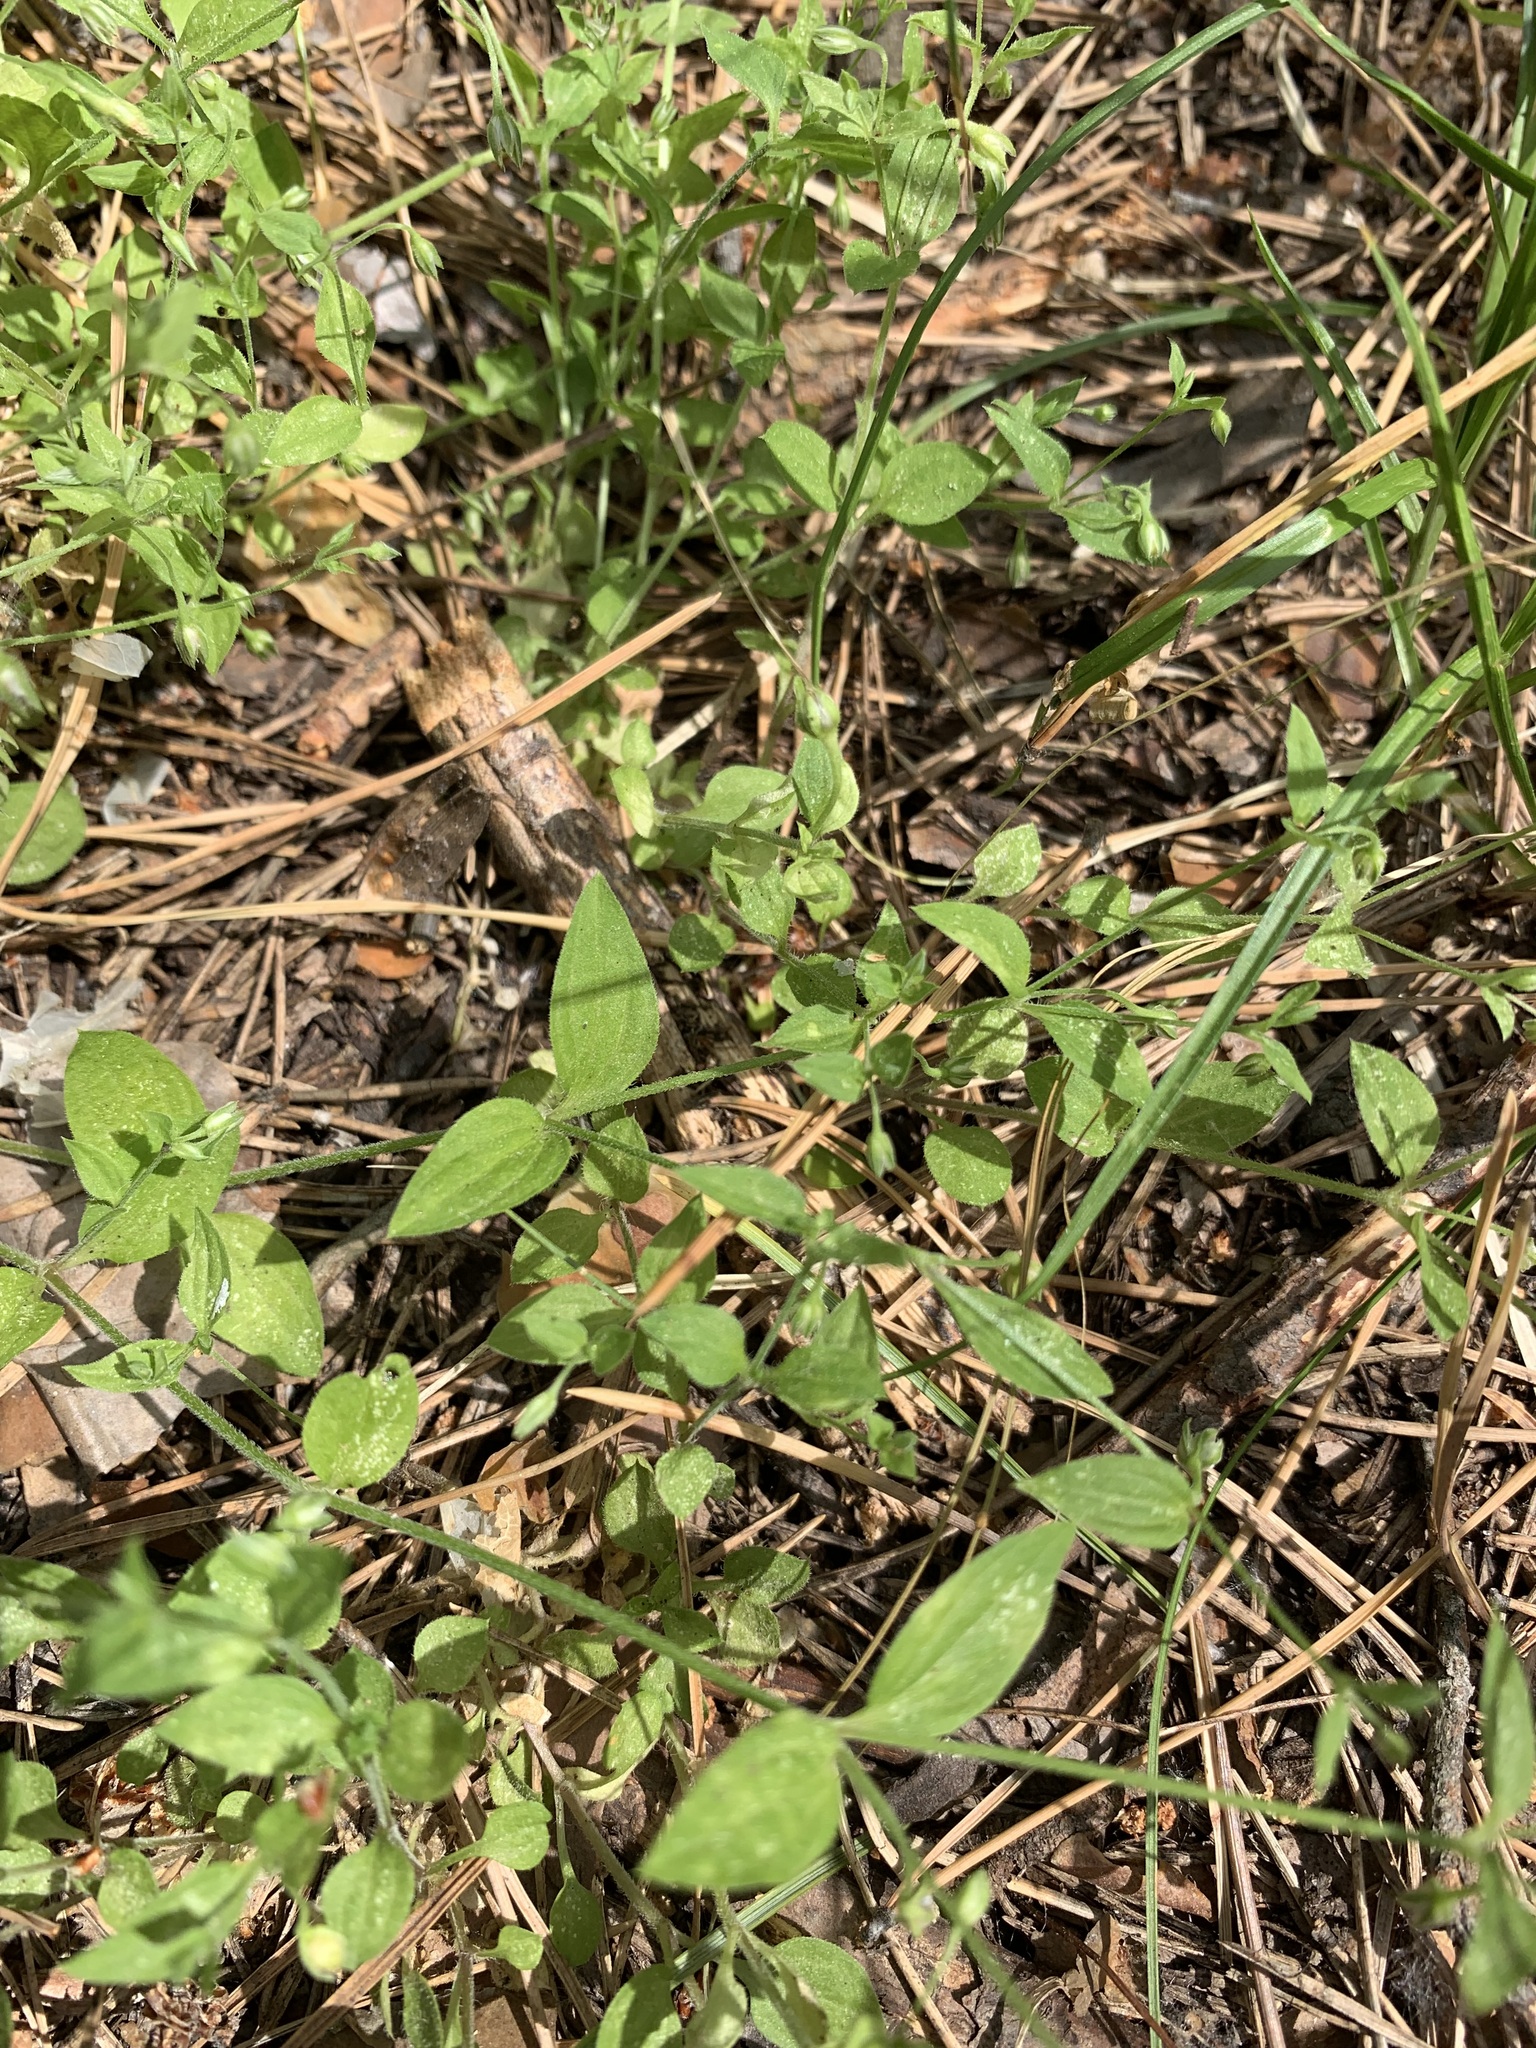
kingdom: Plantae
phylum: Tracheophyta
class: Magnoliopsida
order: Caryophyllales
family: Caryophyllaceae
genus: Moehringia
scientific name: Moehringia trinervia
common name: Three-nerved sandwort
